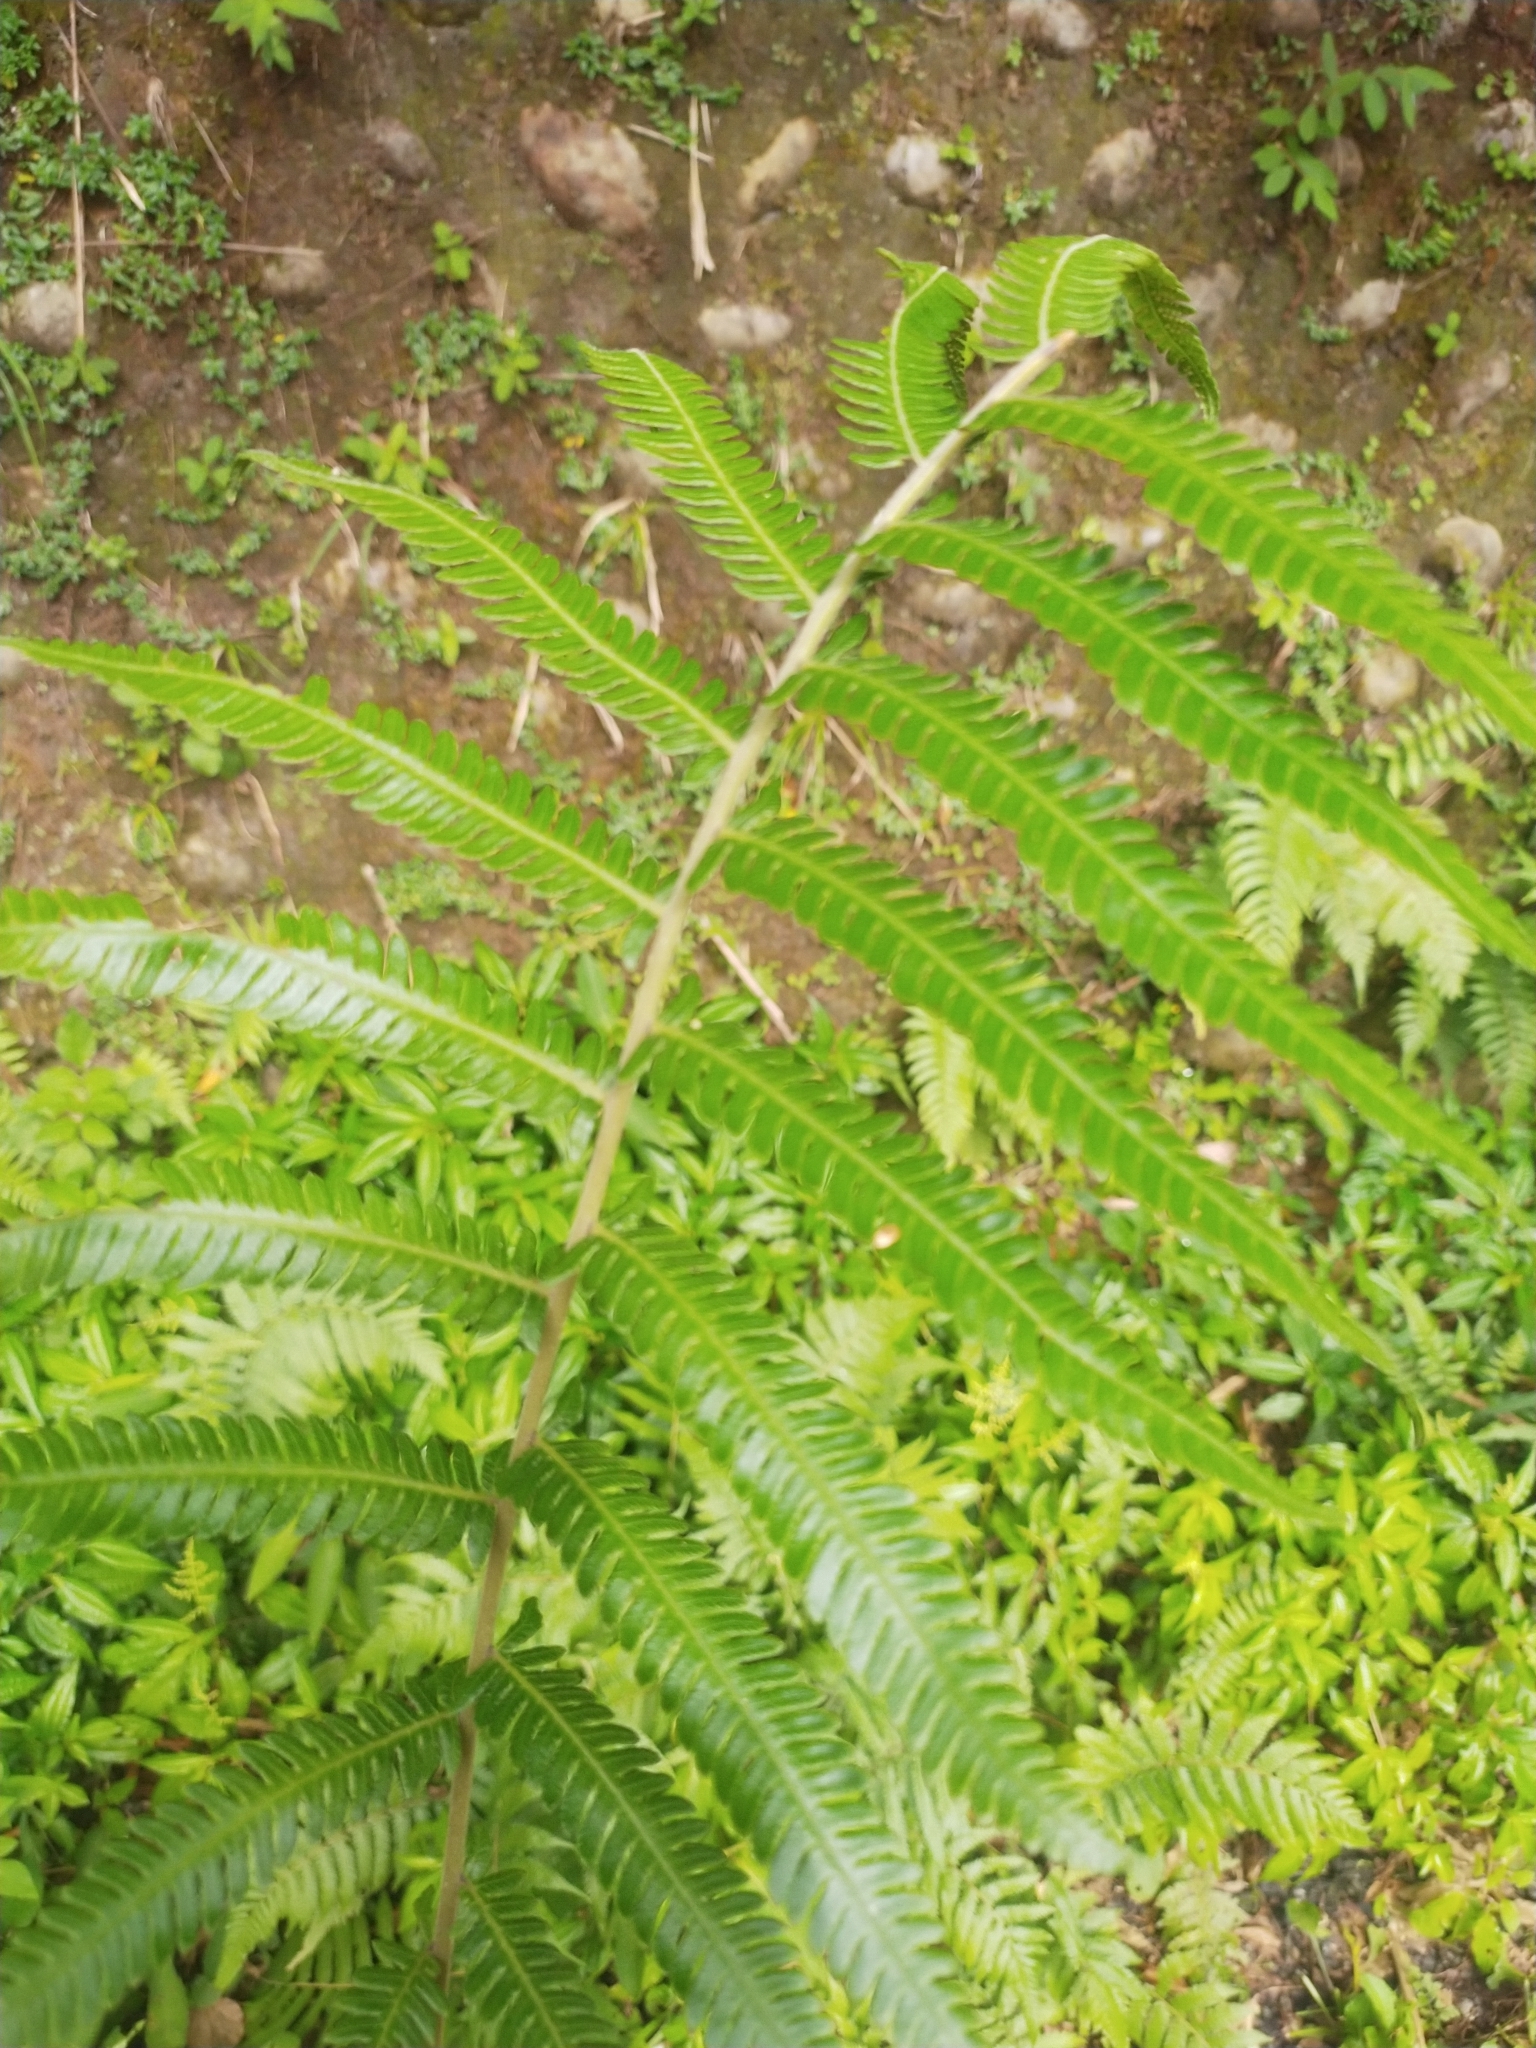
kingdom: Plantae
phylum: Tracheophyta
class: Polypodiopsida
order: Polypodiales
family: Thelypteridaceae
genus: Christella
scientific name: Christella acuminata
